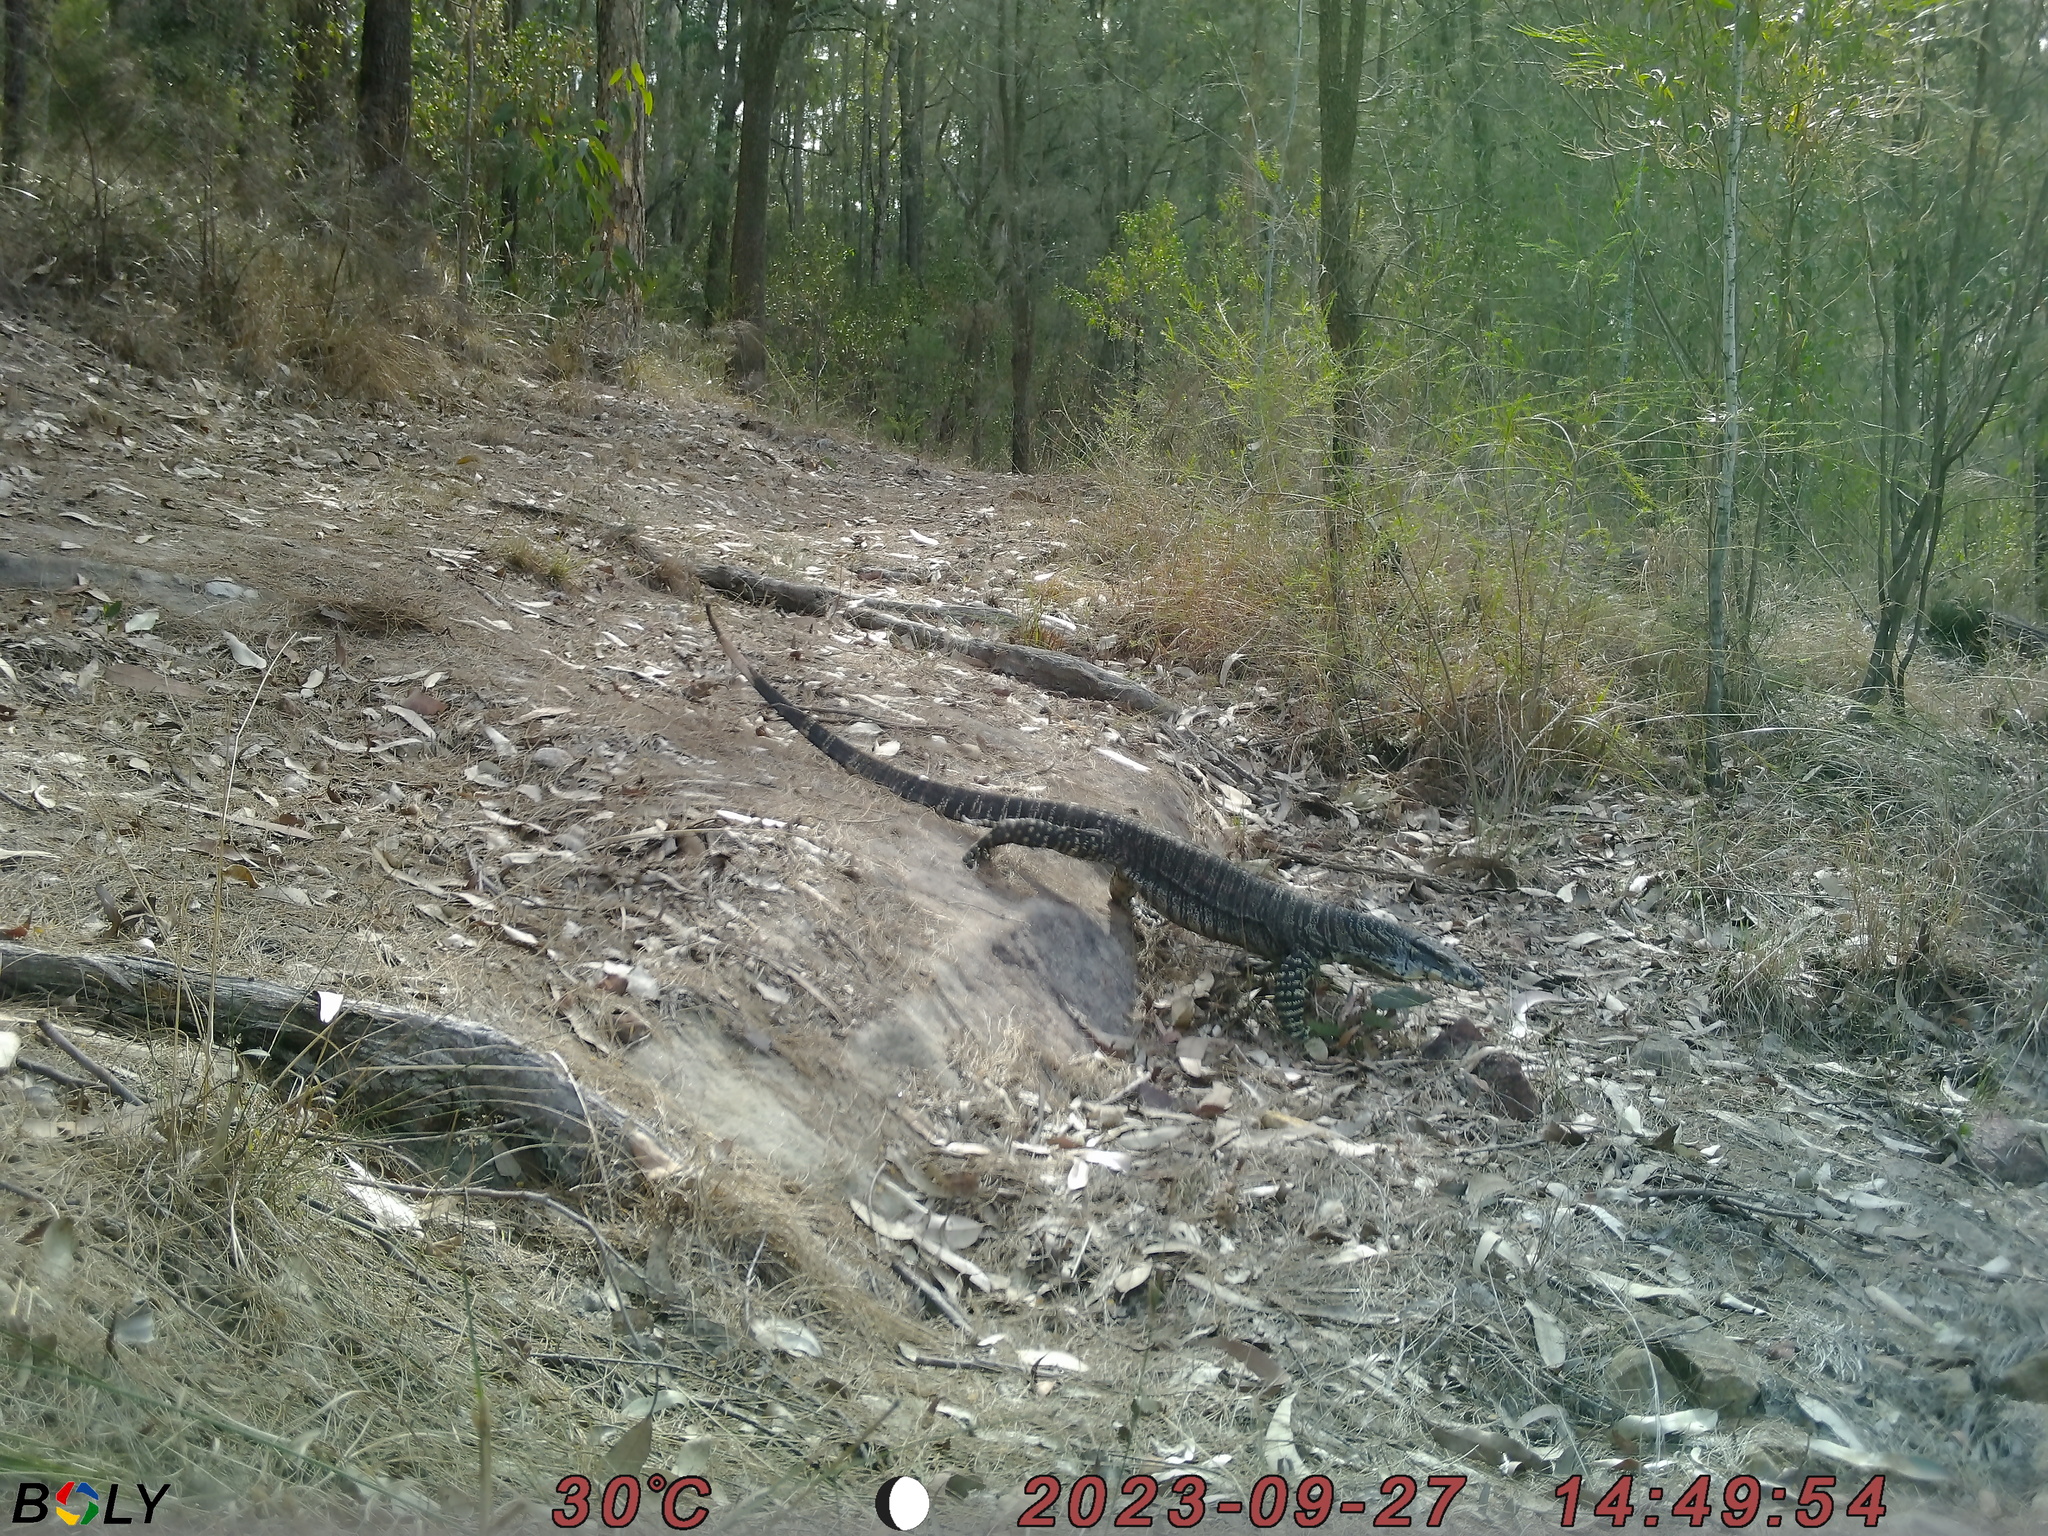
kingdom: Animalia
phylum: Chordata
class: Squamata
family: Varanidae
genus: Varanus
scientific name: Varanus varius
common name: Lace monitor
